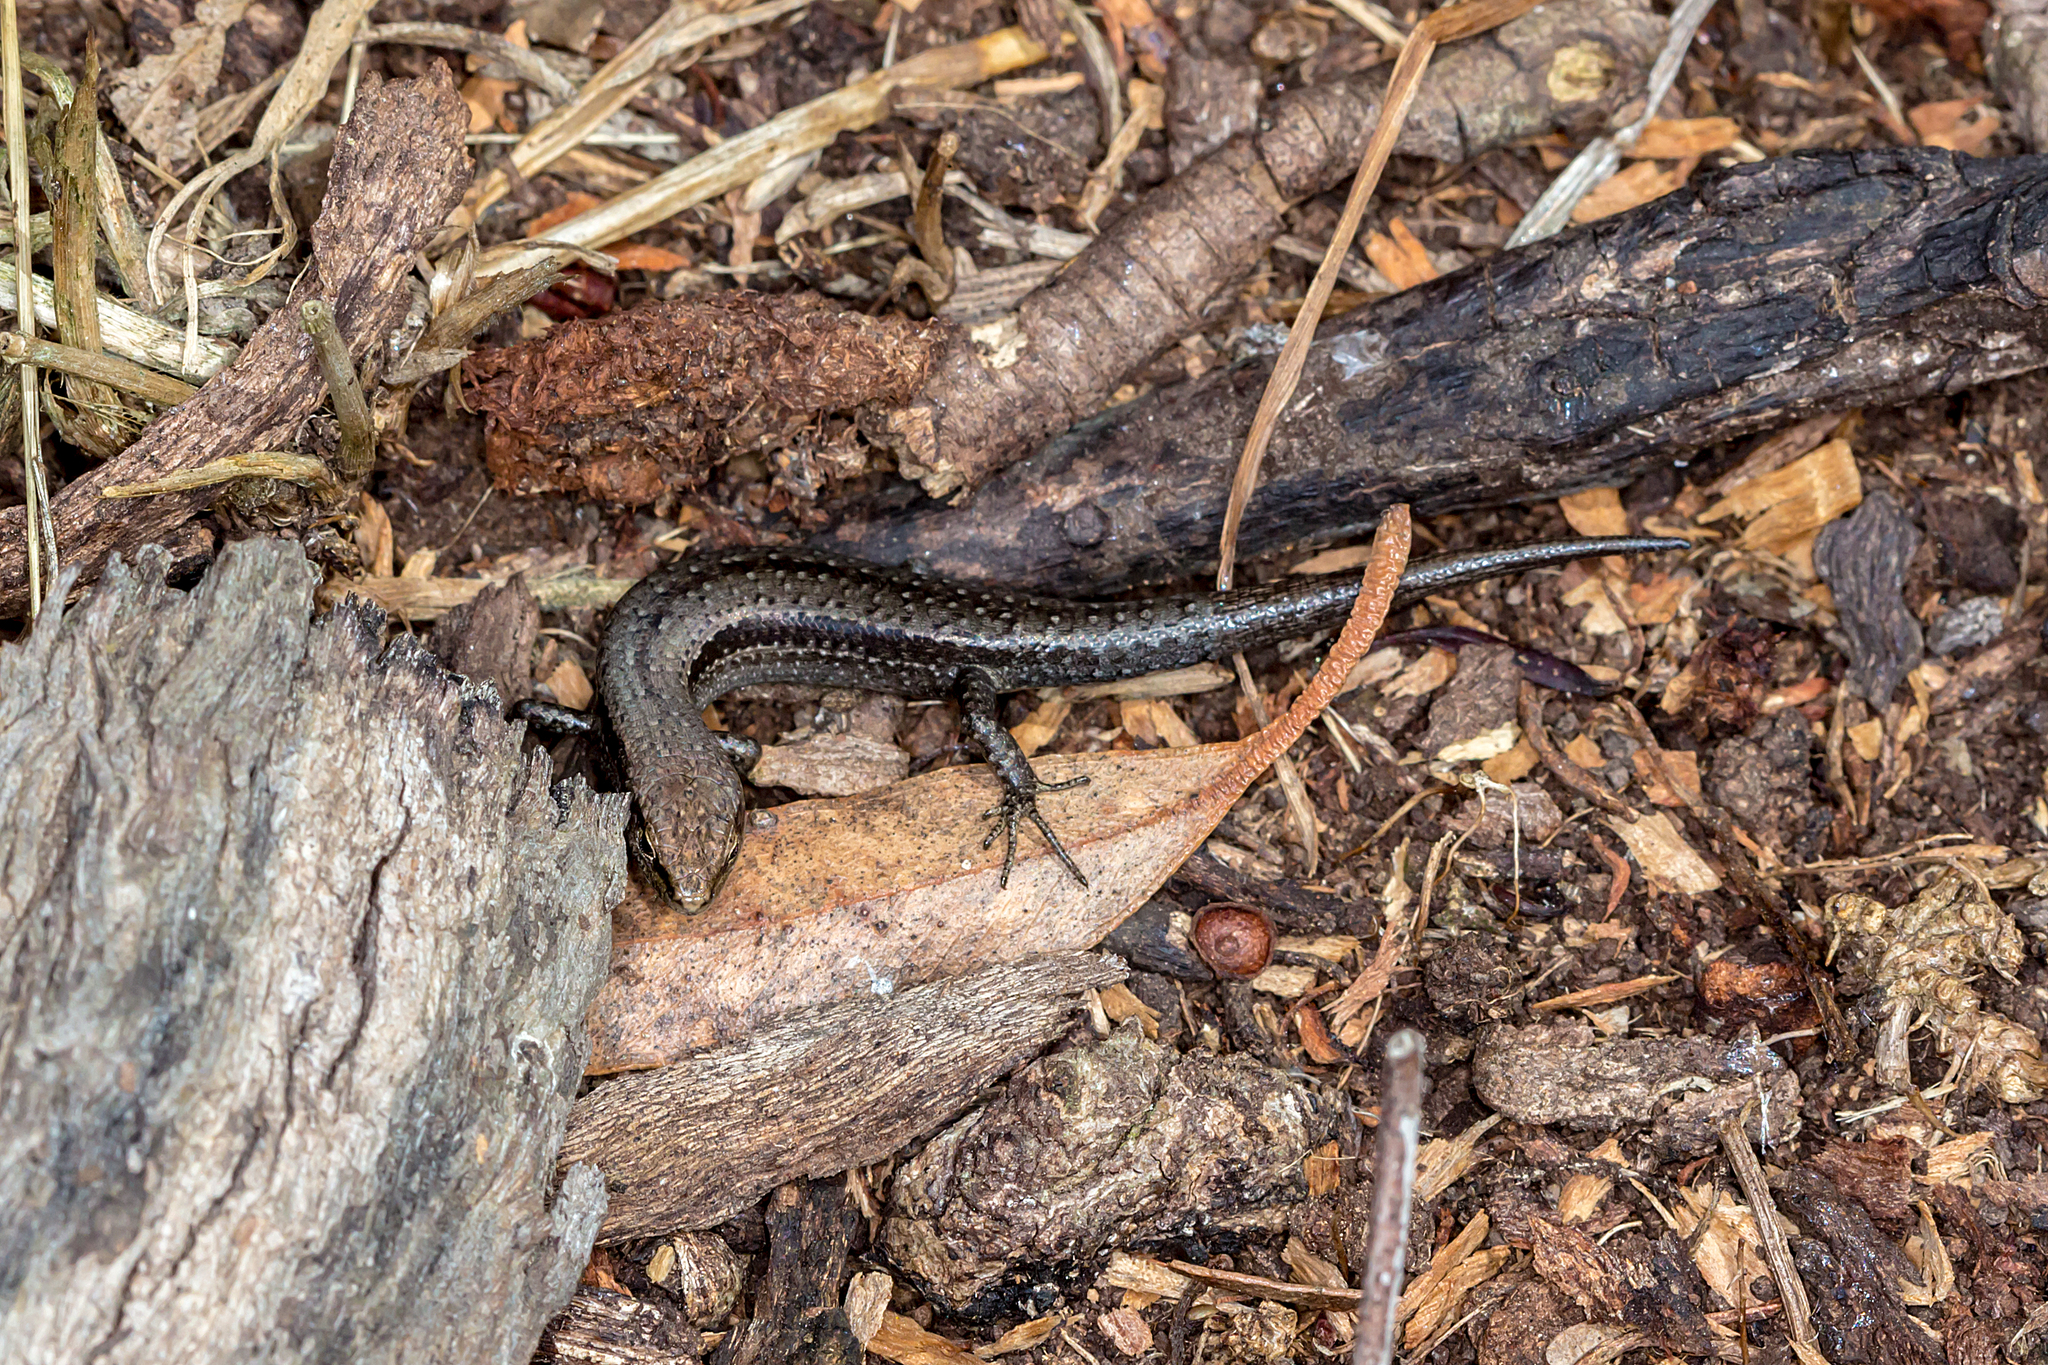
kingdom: Animalia
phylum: Chordata
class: Squamata
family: Scincidae
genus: Lampropholis
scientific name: Lampropholis guichenoti
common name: Garden skink
